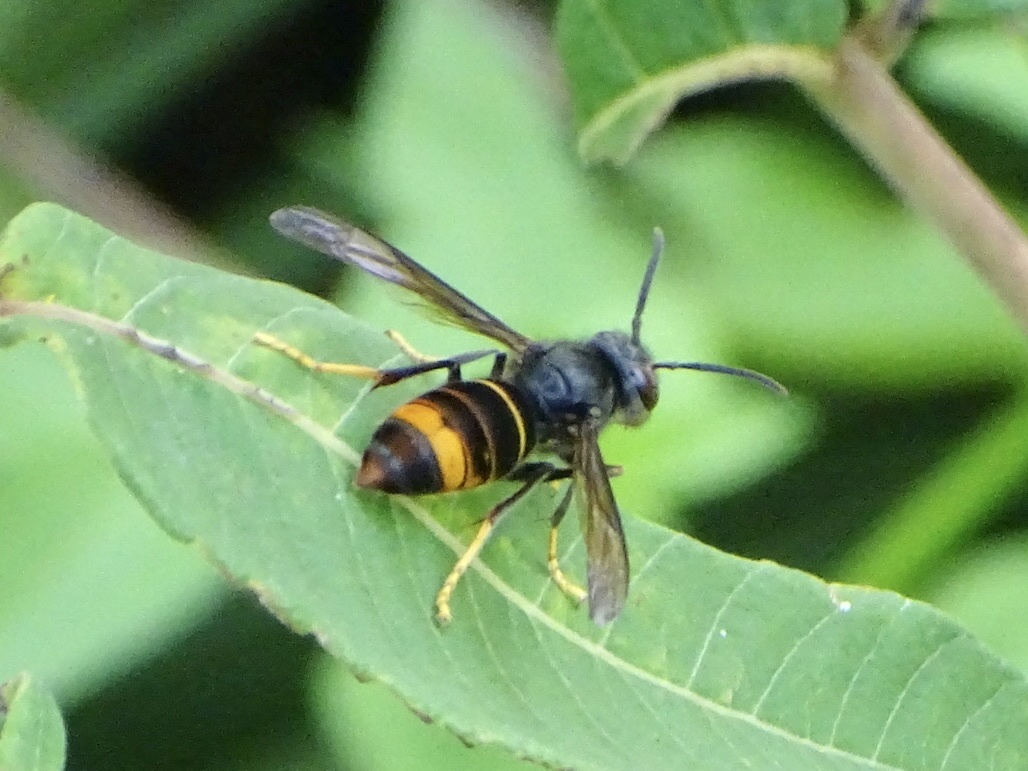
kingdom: Animalia
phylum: Arthropoda
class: Insecta
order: Hymenoptera
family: Vespidae
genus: Vespa
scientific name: Vespa velutina
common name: Asian hornet
